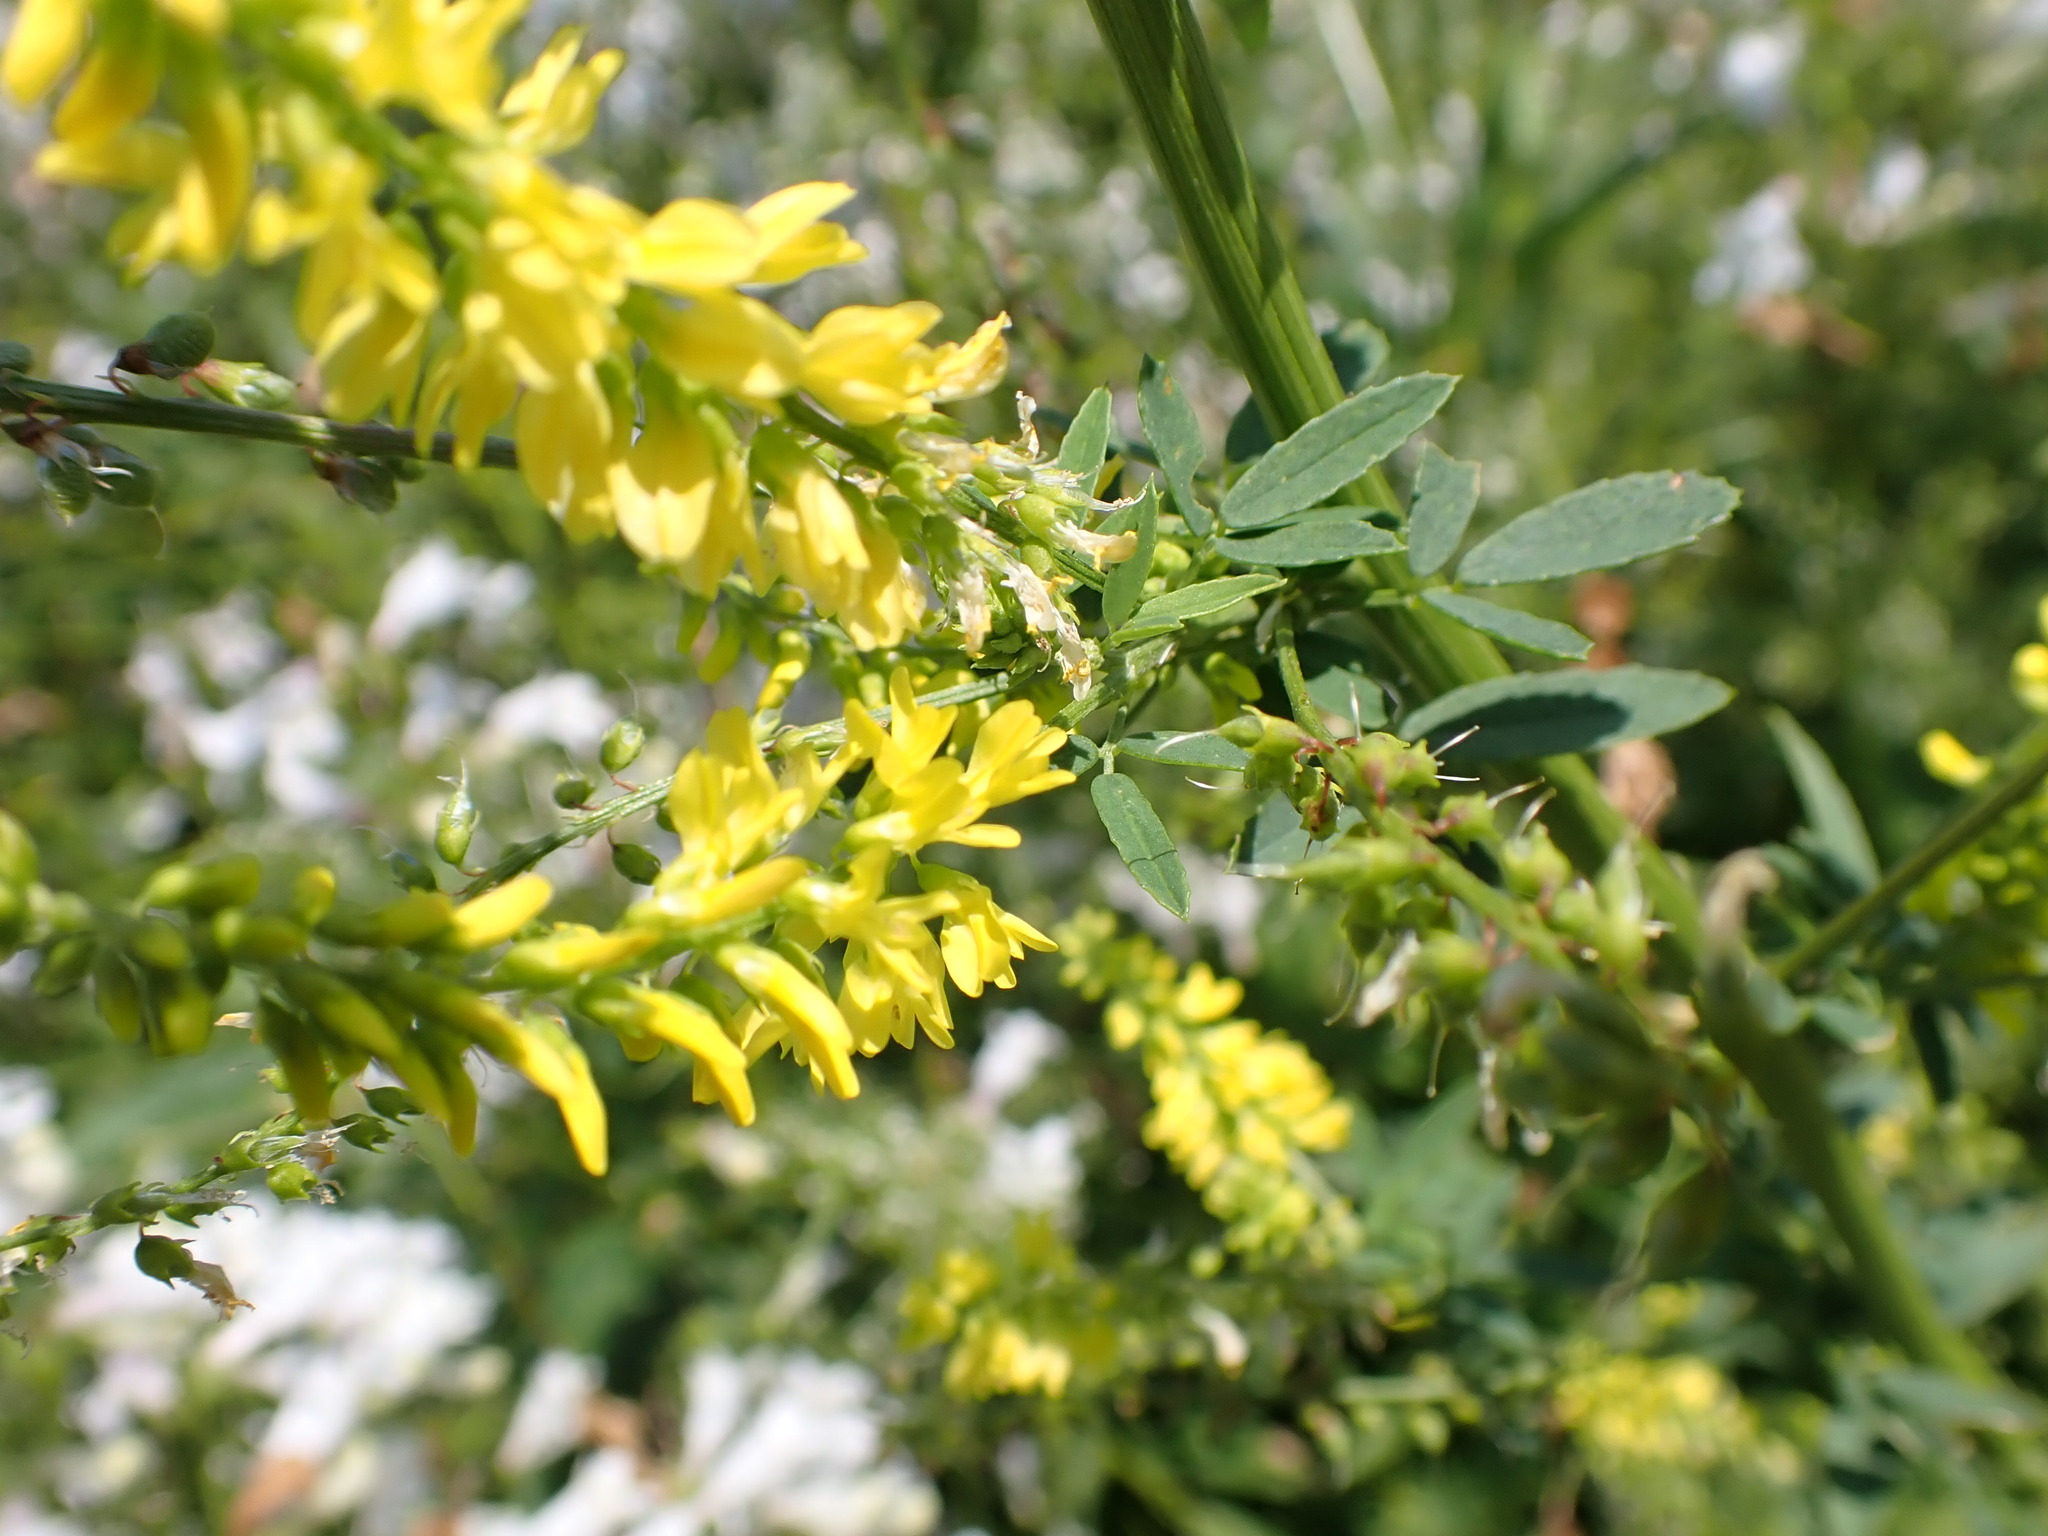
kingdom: Plantae
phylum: Tracheophyta
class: Magnoliopsida
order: Fabales
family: Fabaceae
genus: Melilotus
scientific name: Melilotus officinalis
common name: Sweetclover
